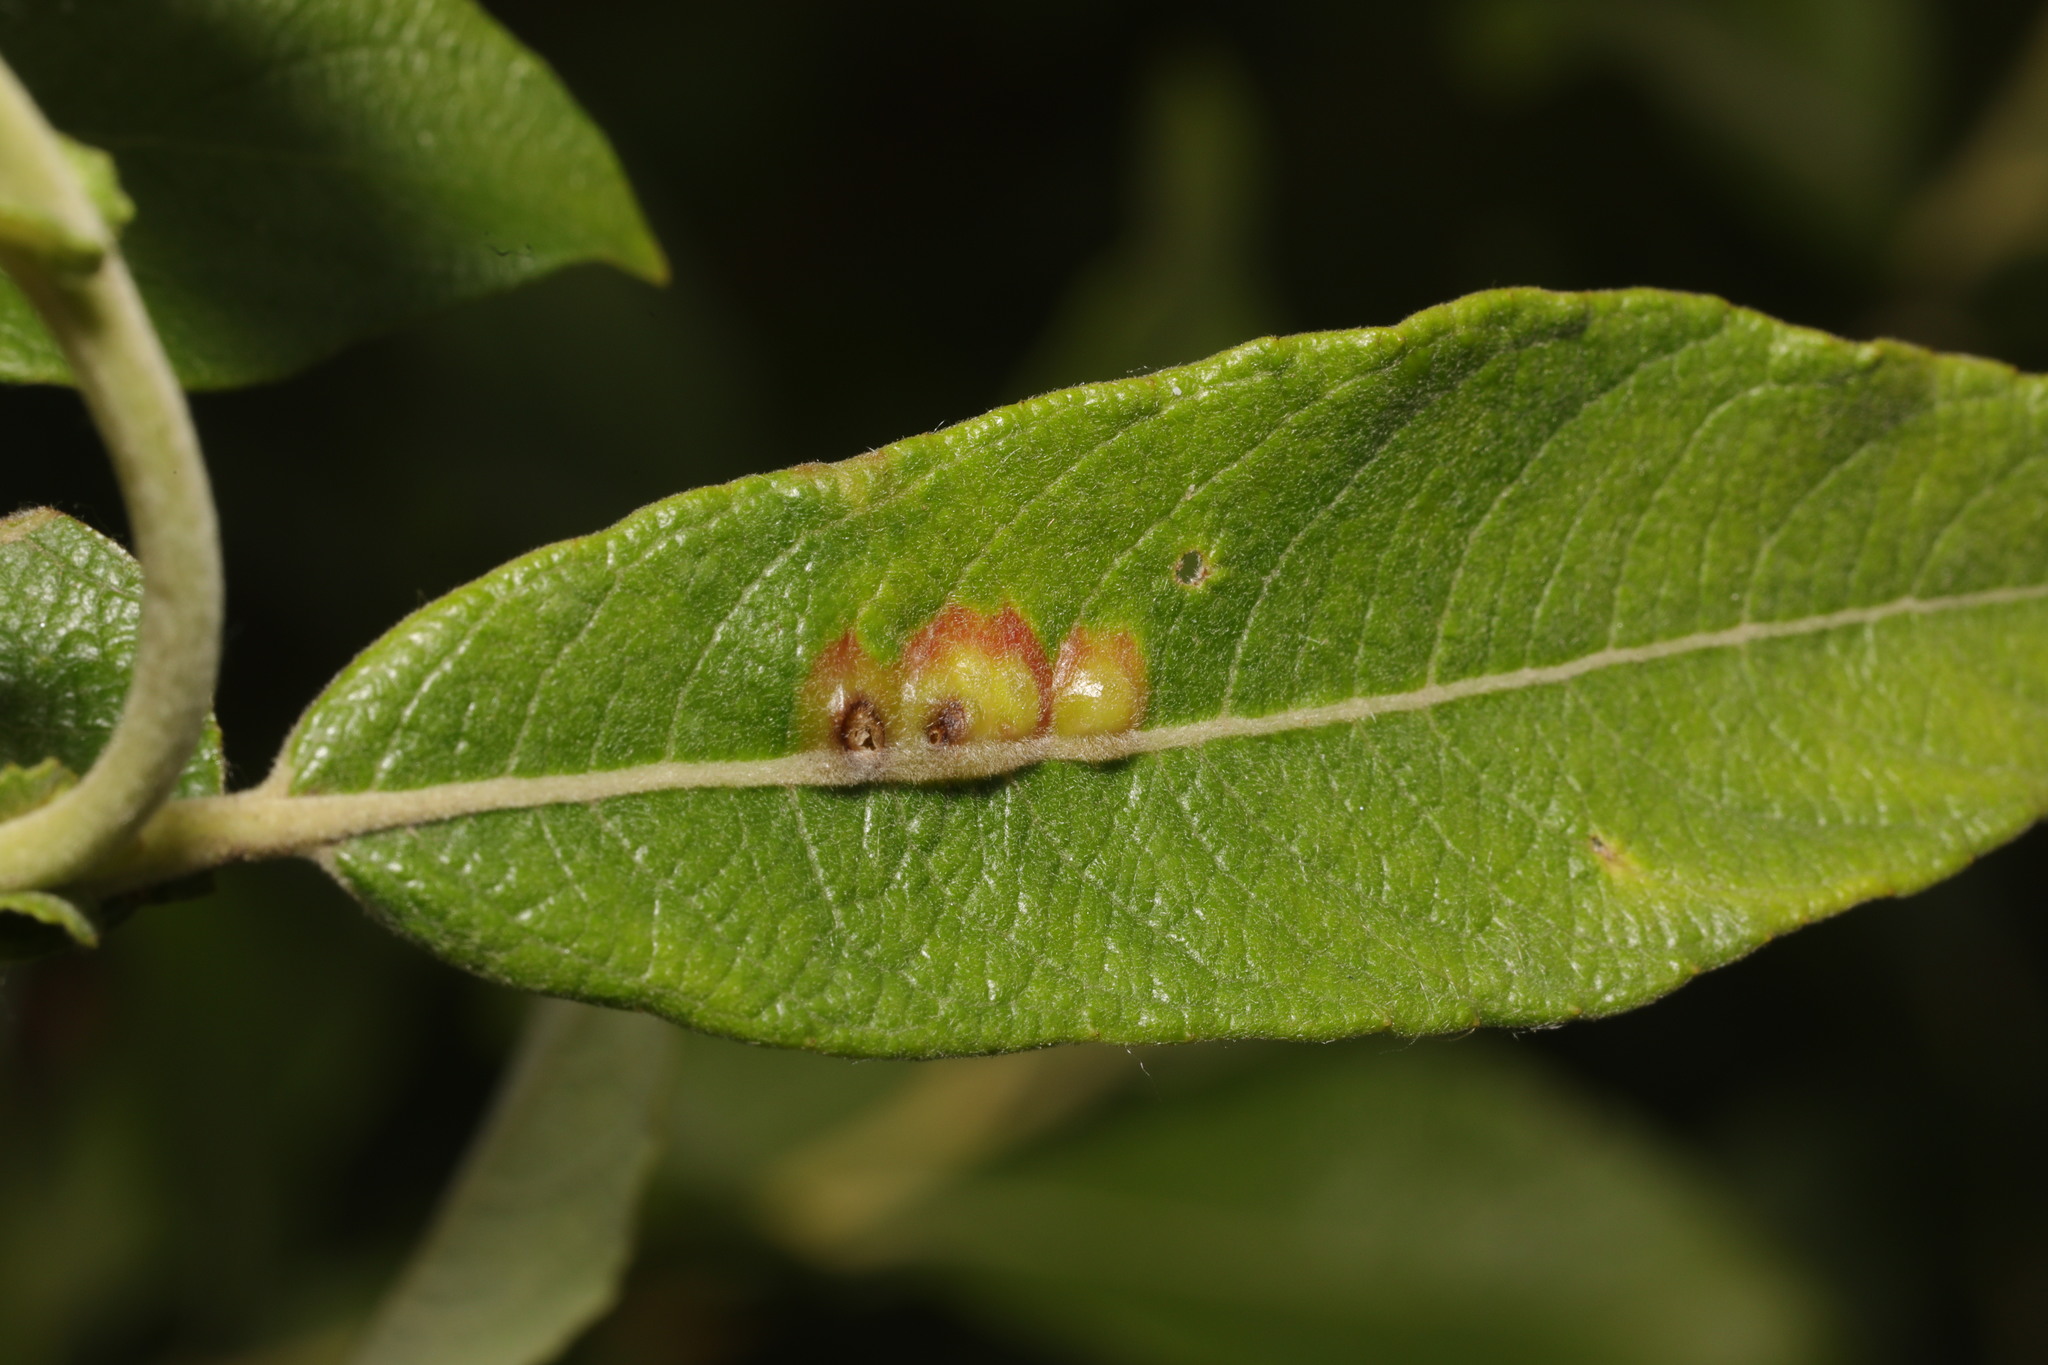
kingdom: Animalia
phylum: Arthropoda
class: Insecta
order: Diptera
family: Cecidomyiidae
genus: Iteomyia
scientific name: Iteomyia major
